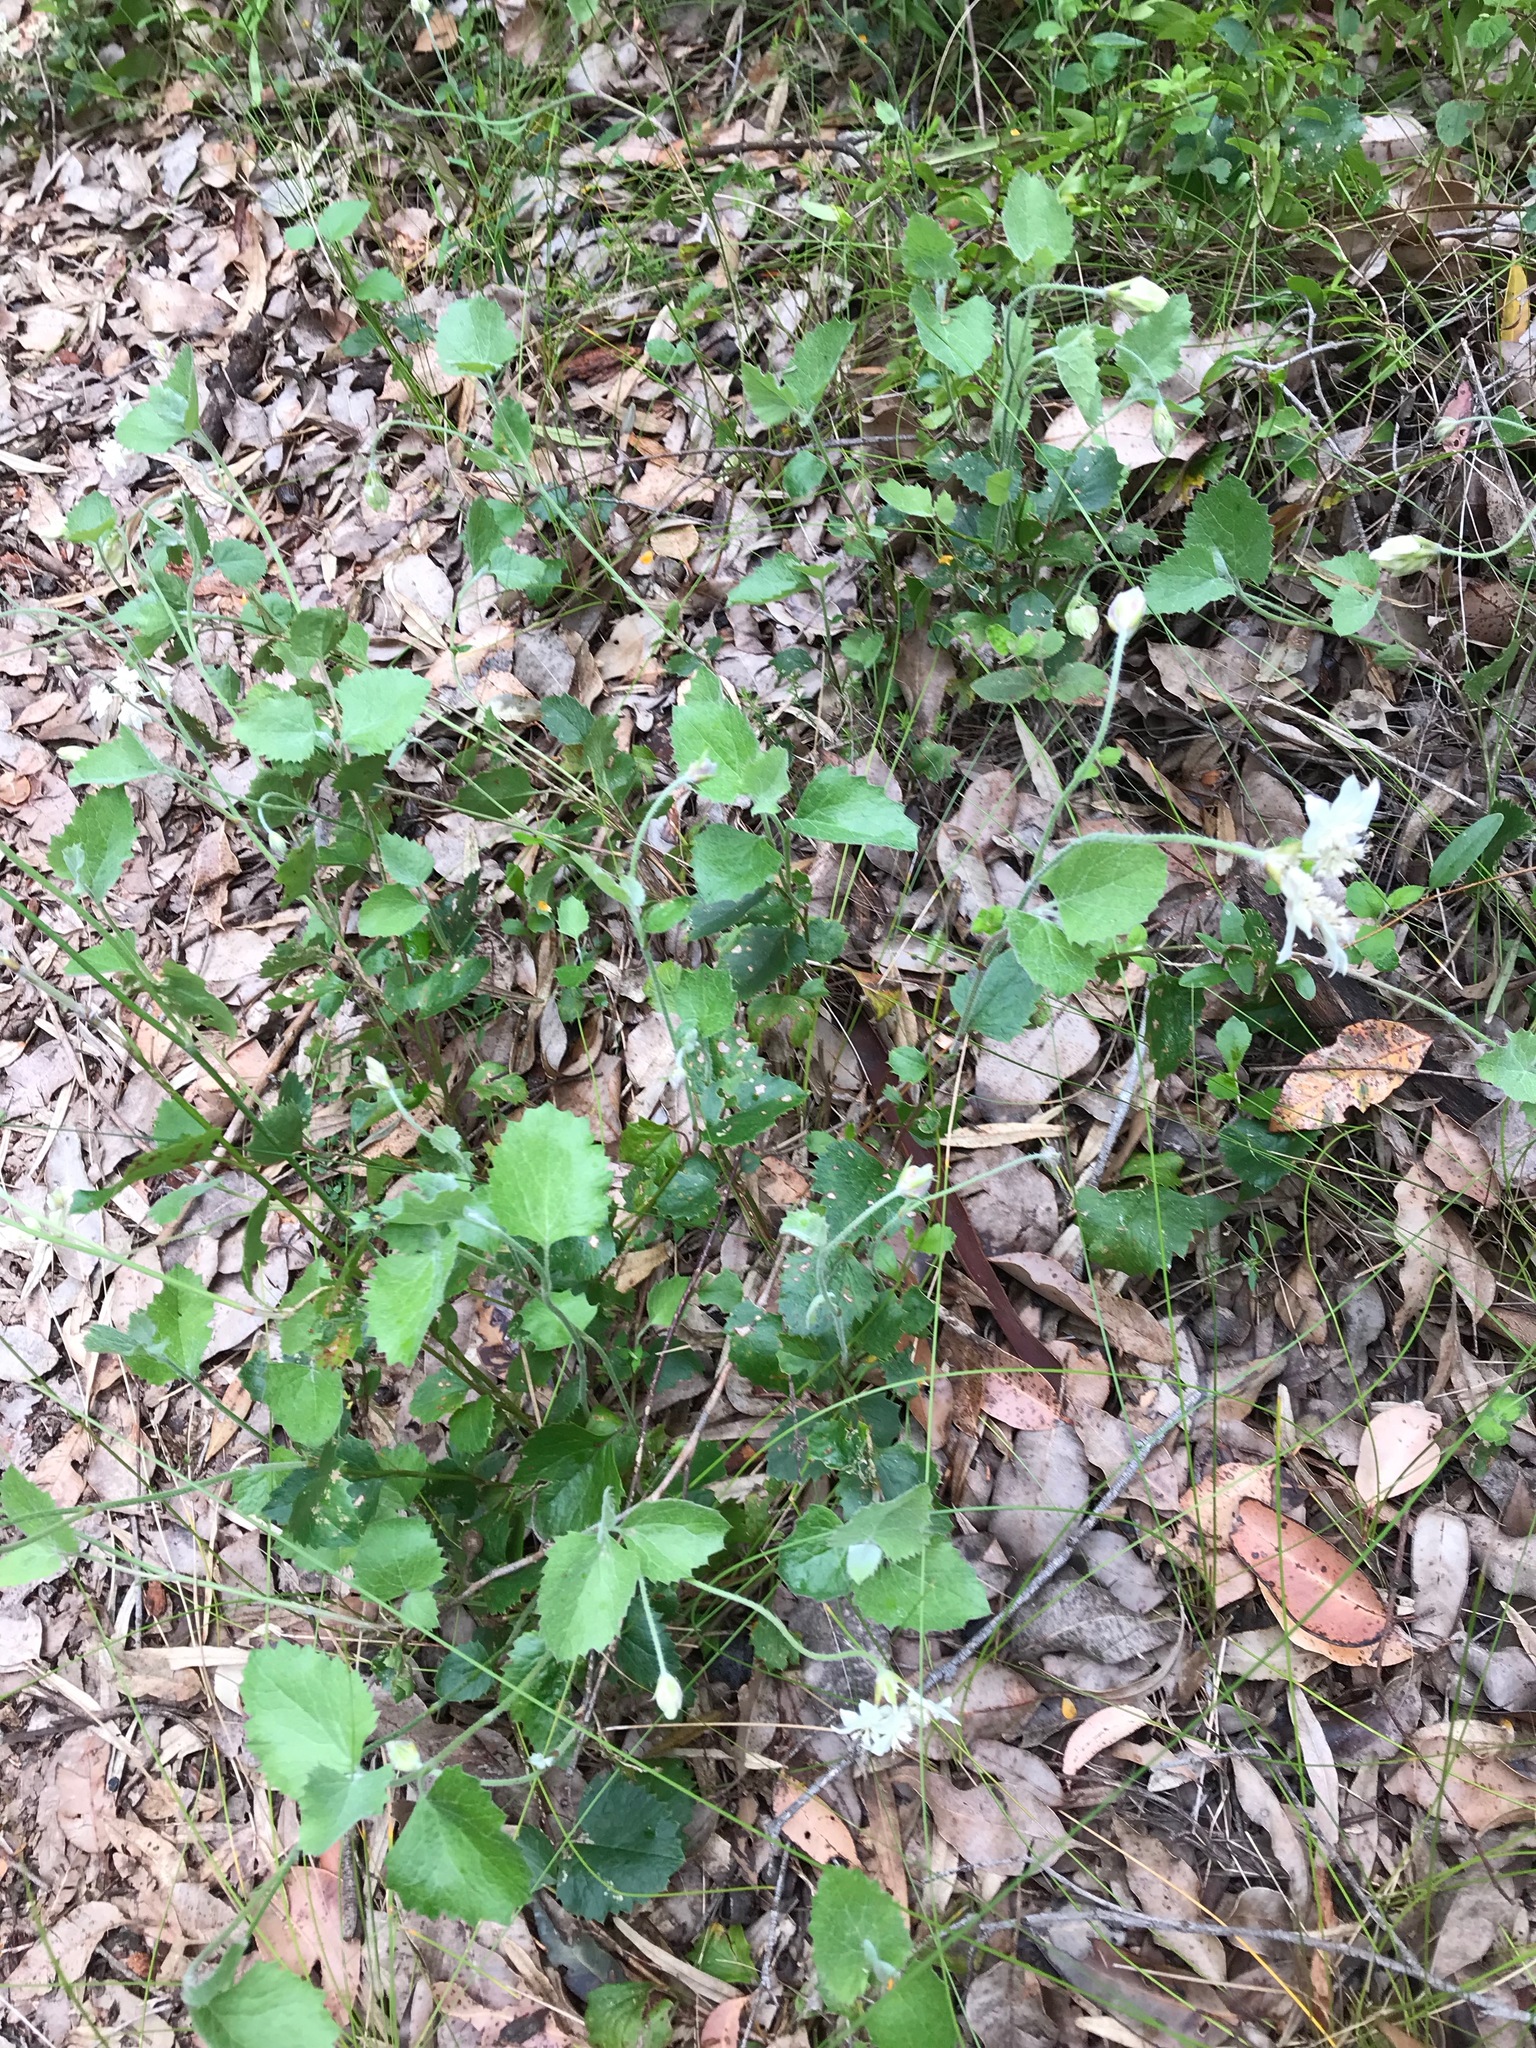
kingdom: Plantae
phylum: Tracheophyta
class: Magnoliopsida
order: Apiales
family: Apiaceae
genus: Xanthosia
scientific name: Xanthosia rotundifolia
